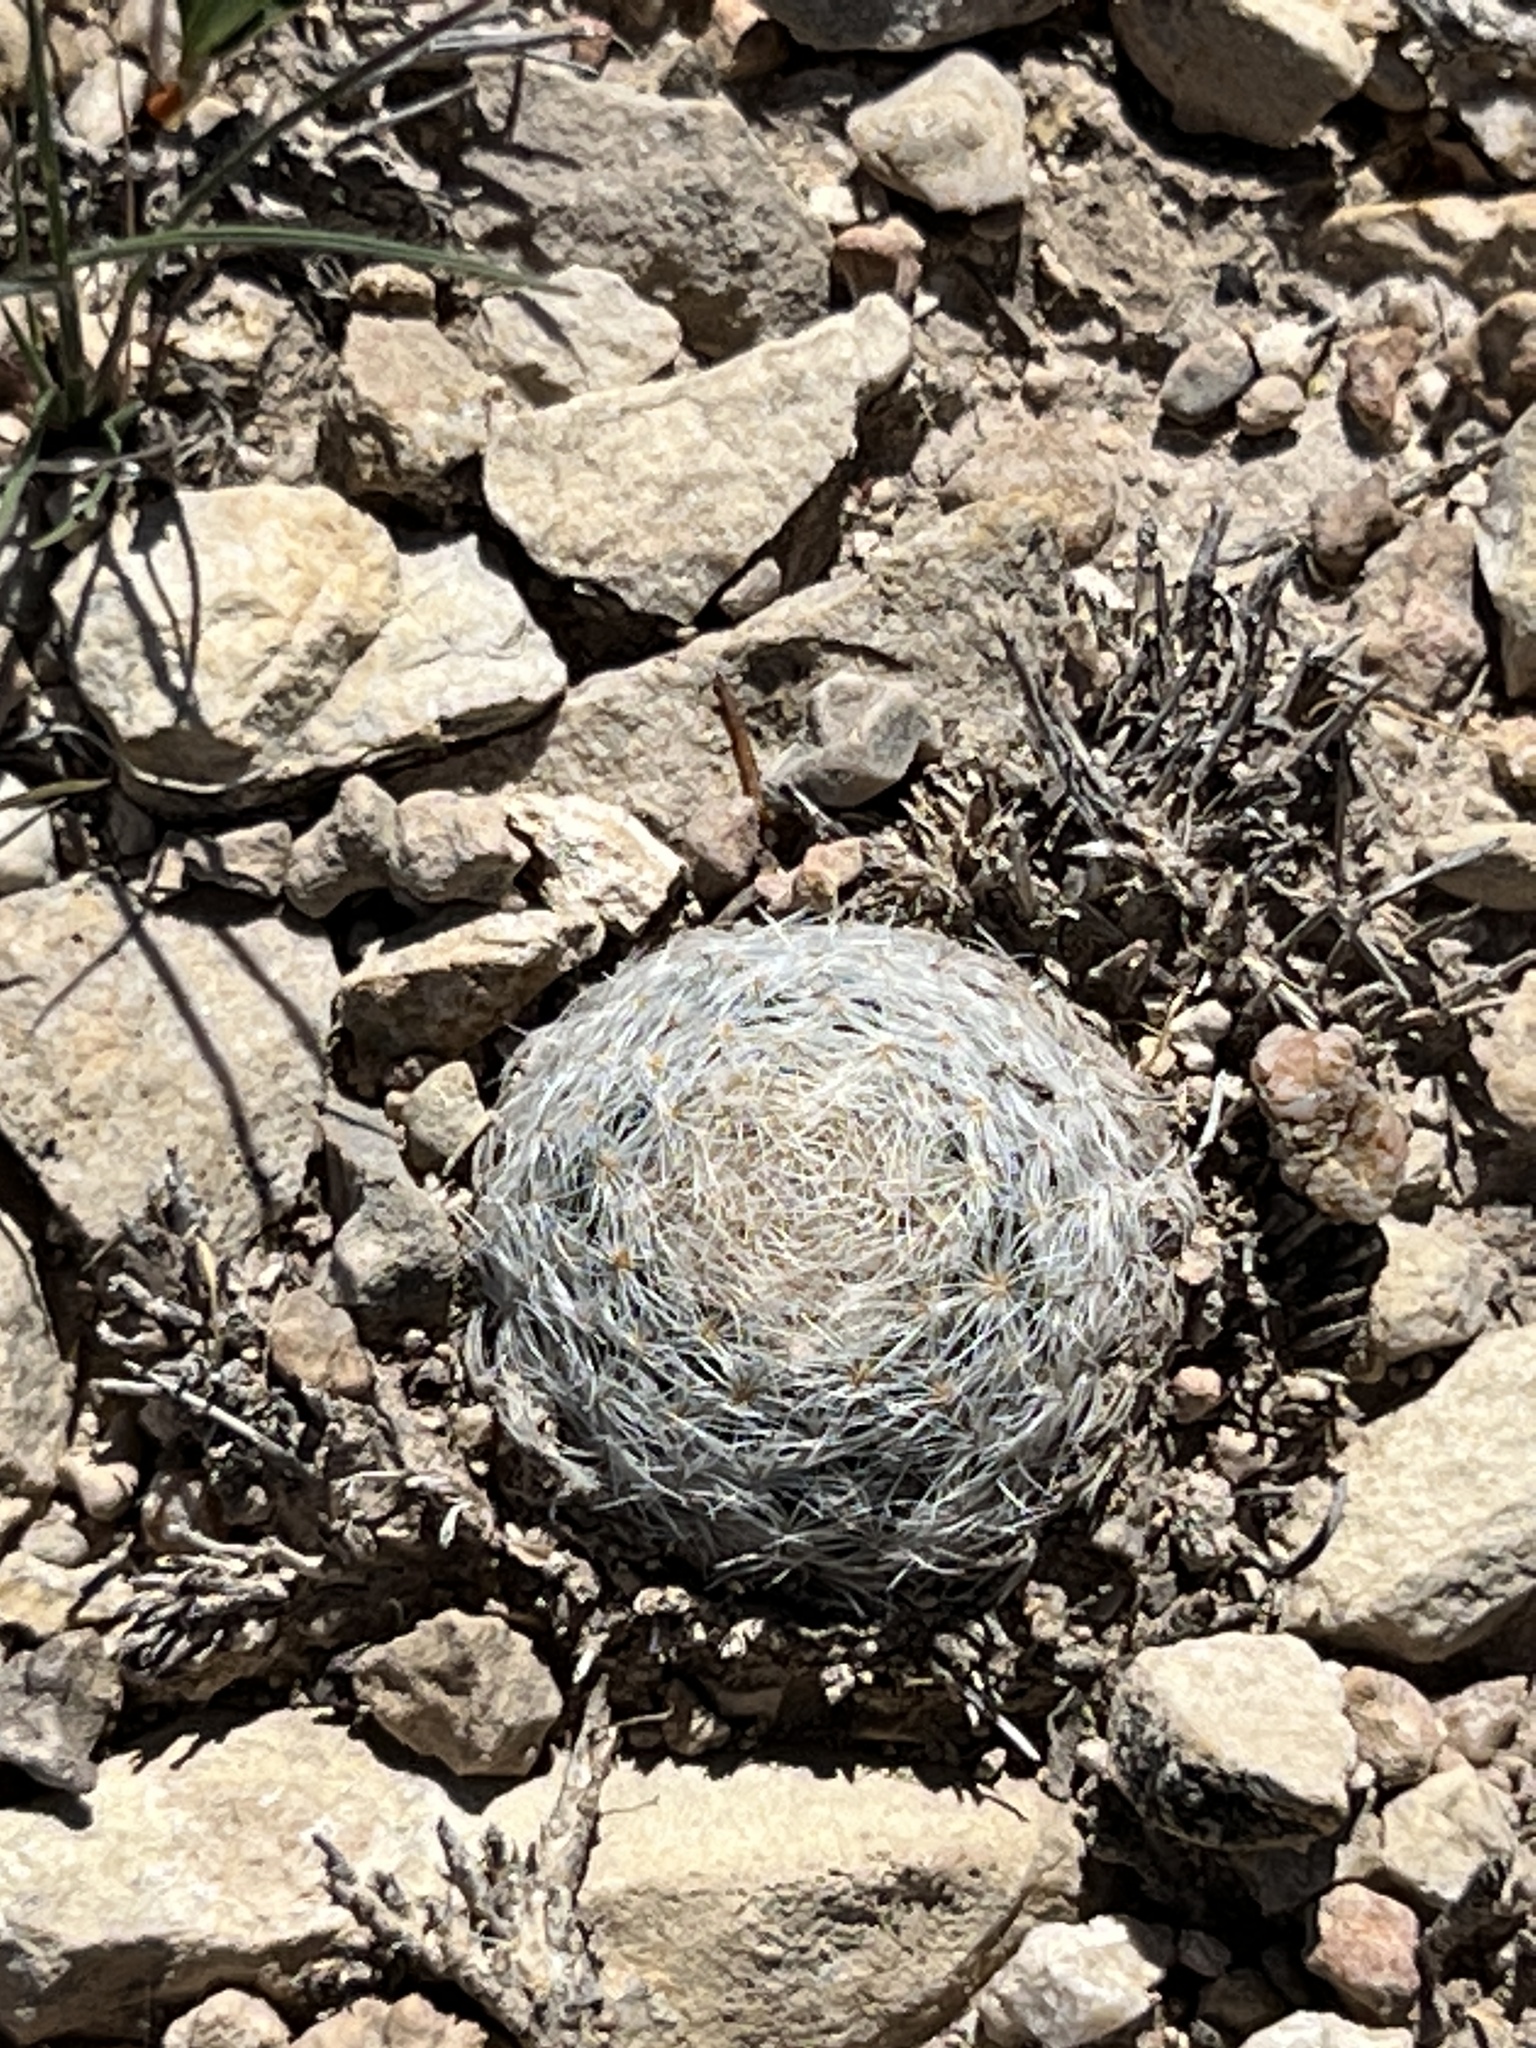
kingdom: Plantae
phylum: Tracheophyta
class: Magnoliopsida
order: Caryophyllales
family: Cactaceae
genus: Mammillaria
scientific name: Mammillaria lasiacantha
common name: Lace-spine nipple cactus
